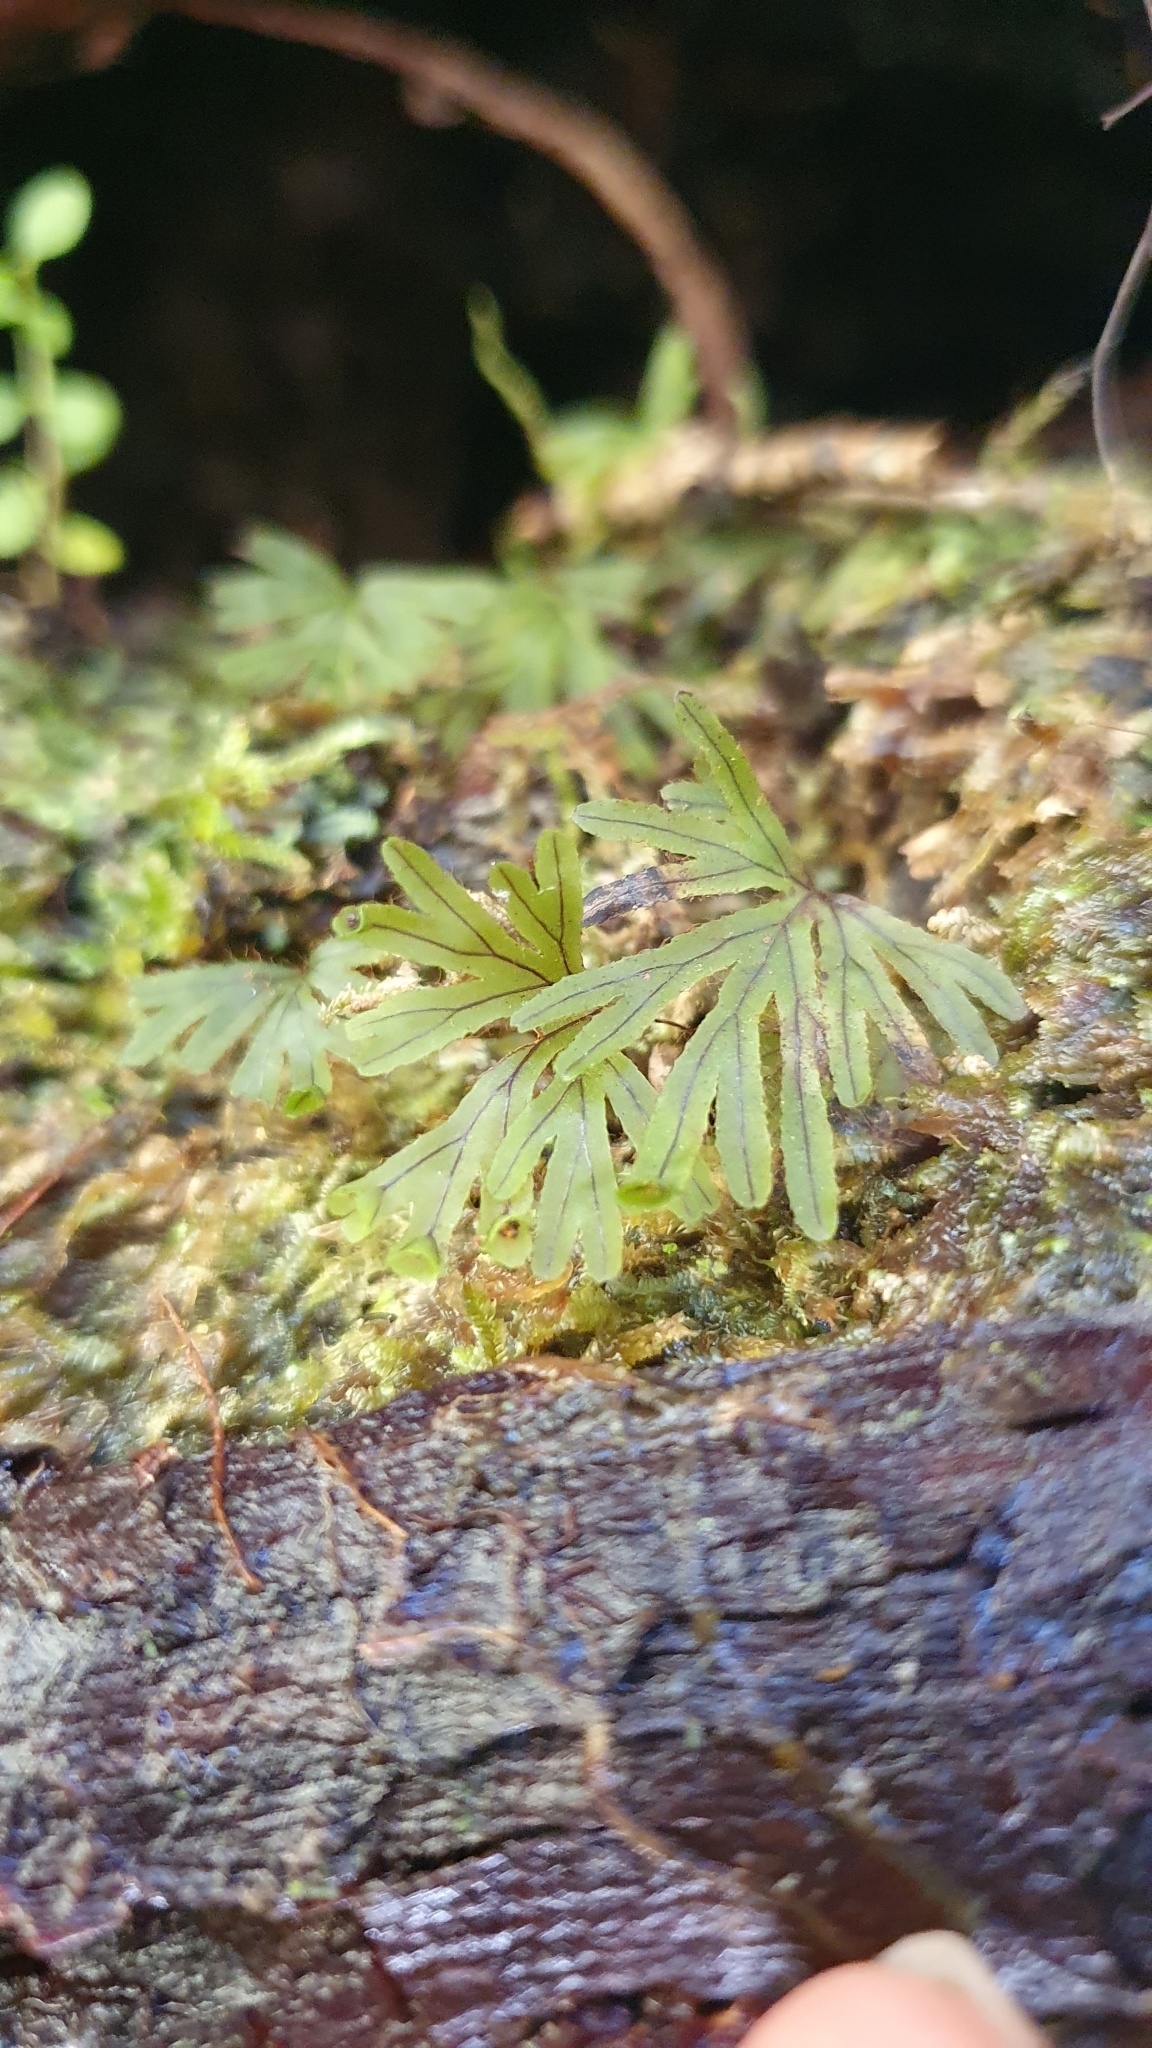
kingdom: Plantae
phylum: Tracheophyta
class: Polypodiopsida
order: Hymenophyllales
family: Hymenophyllaceae
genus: Hymenophyllum
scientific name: Hymenophyllum lyallii
